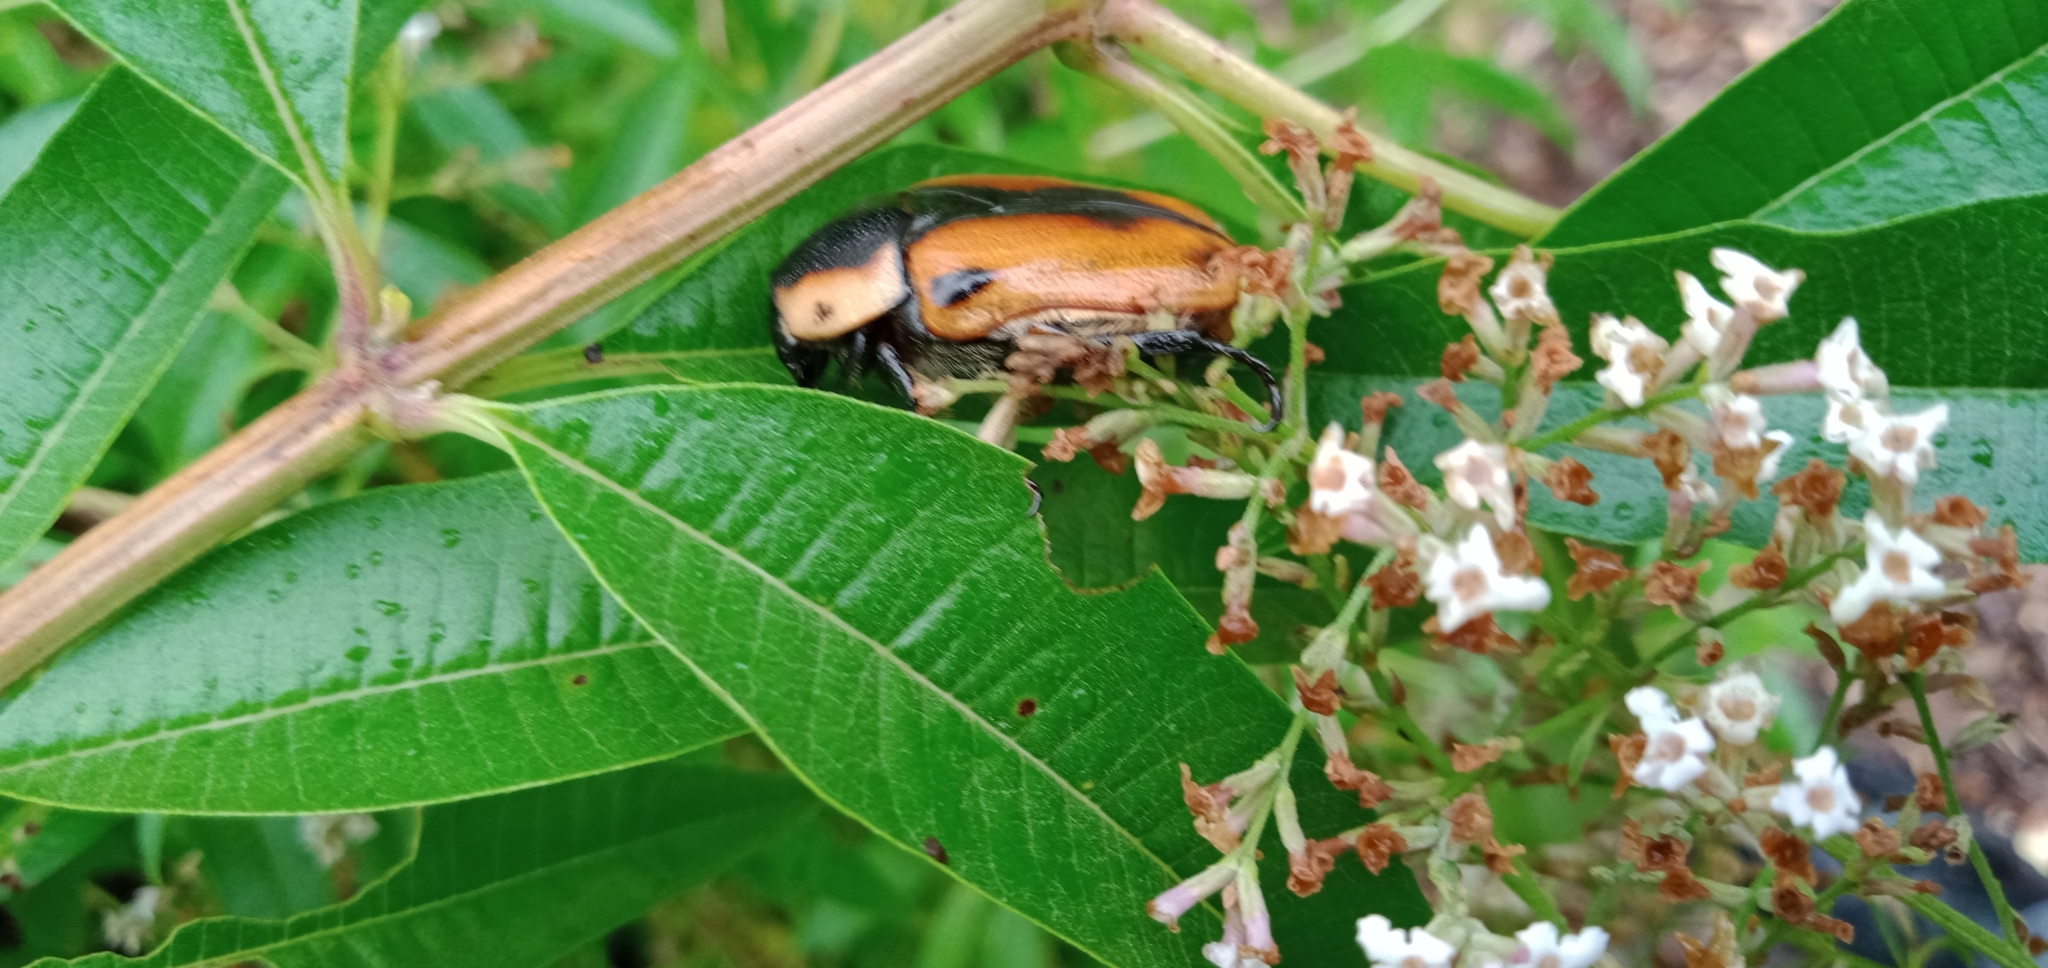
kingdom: Animalia
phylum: Arthropoda
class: Insecta
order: Coleoptera
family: Scarabaeidae
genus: Chondropyga
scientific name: Chondropyga dorsalis
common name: Cowboy beetle
